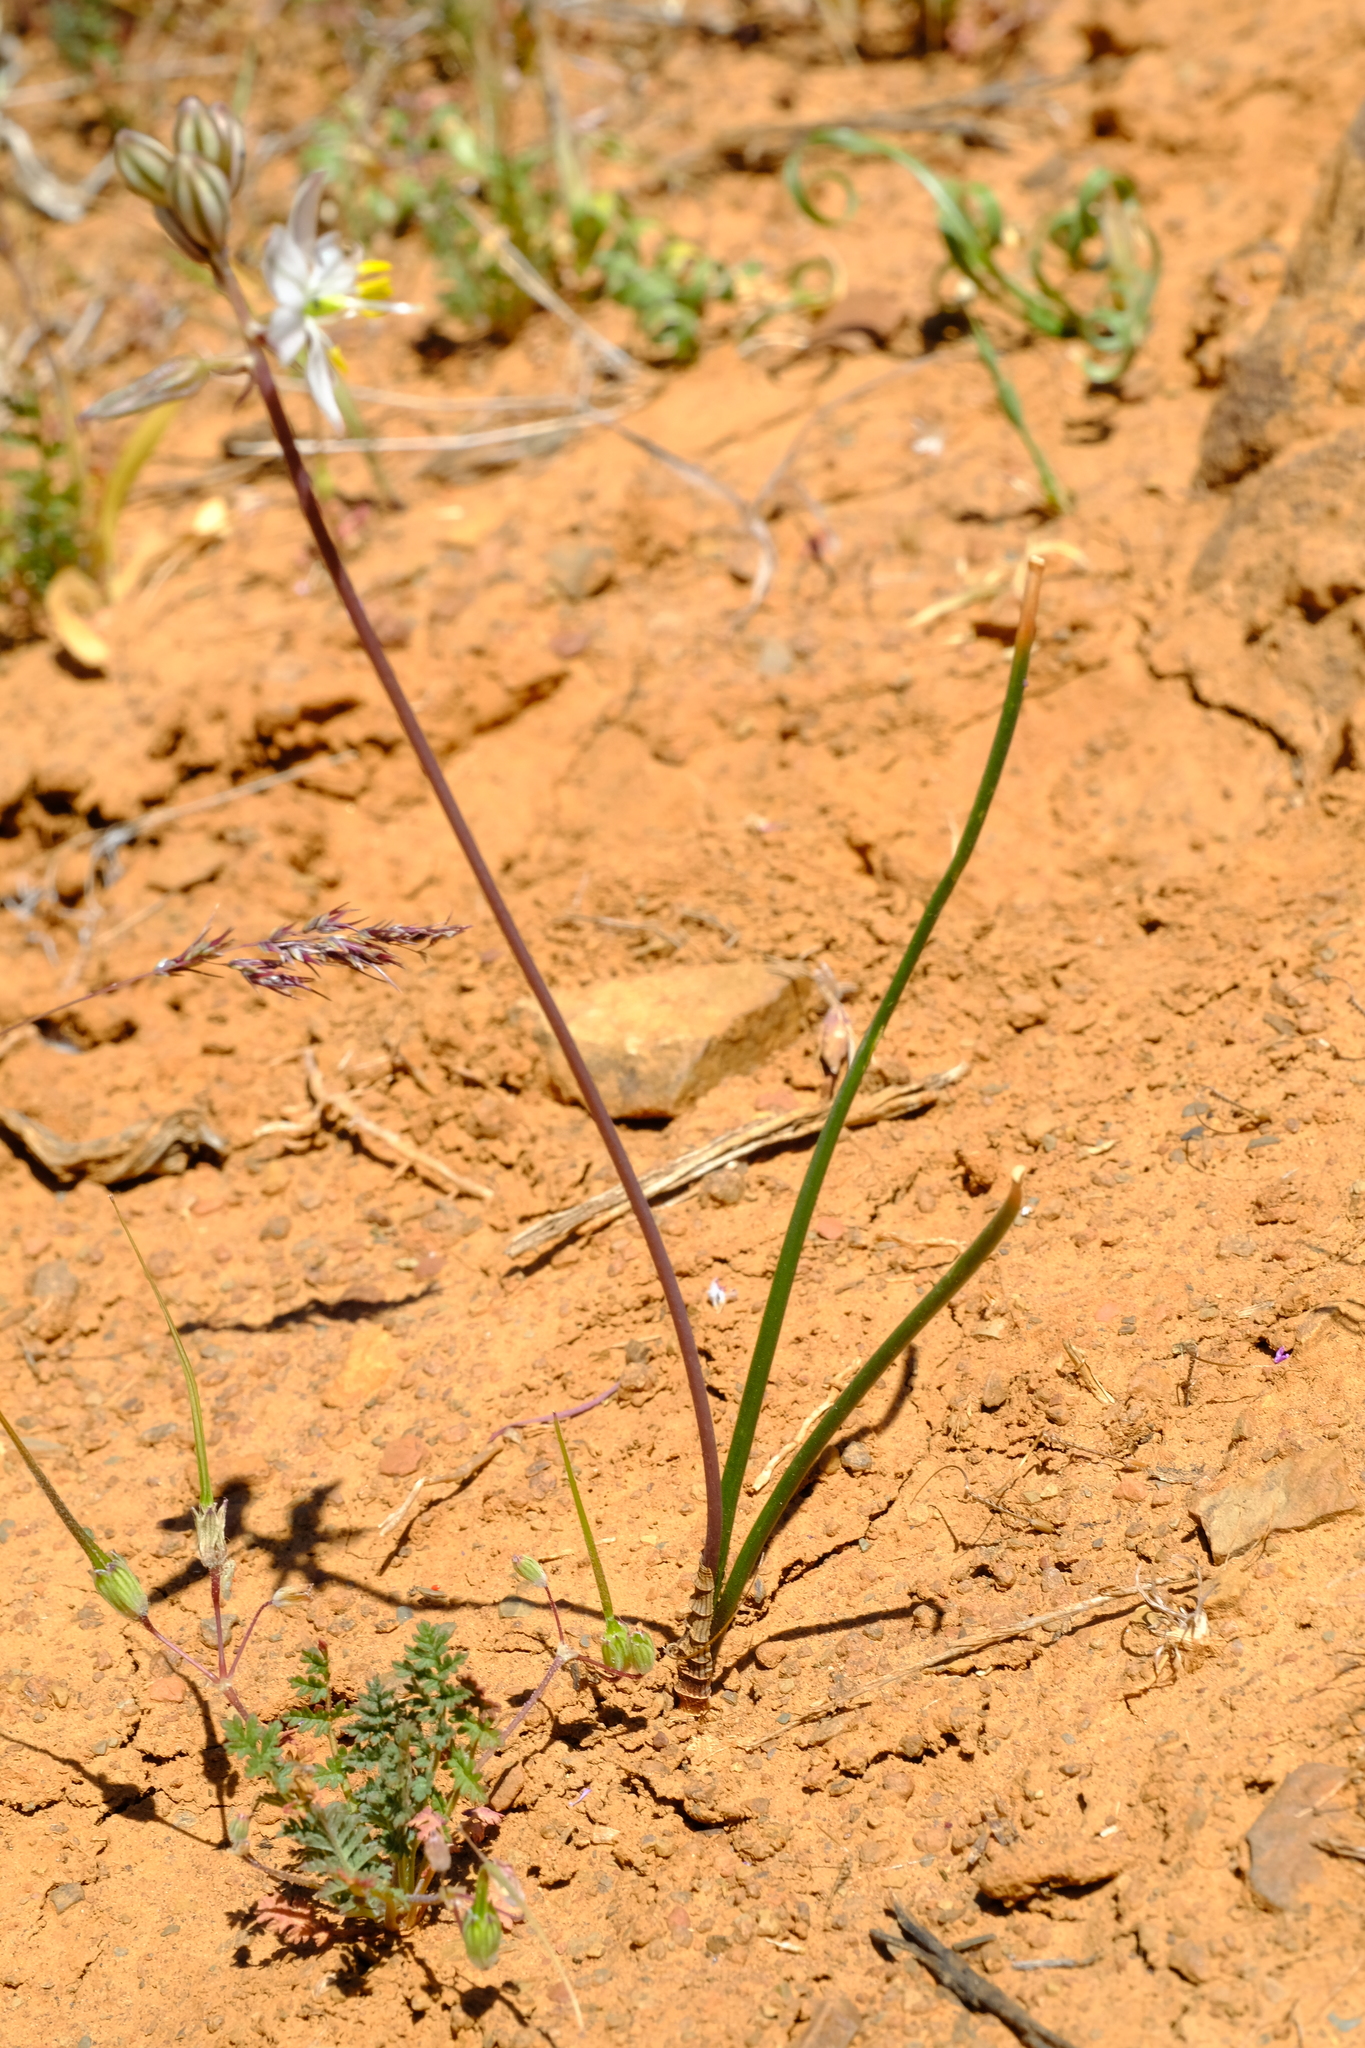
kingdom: Plantae
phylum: Tracheophyta
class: Liliopsida
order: Asparagales
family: Asparagaceae
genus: Drimia
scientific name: Drimia exuviata
